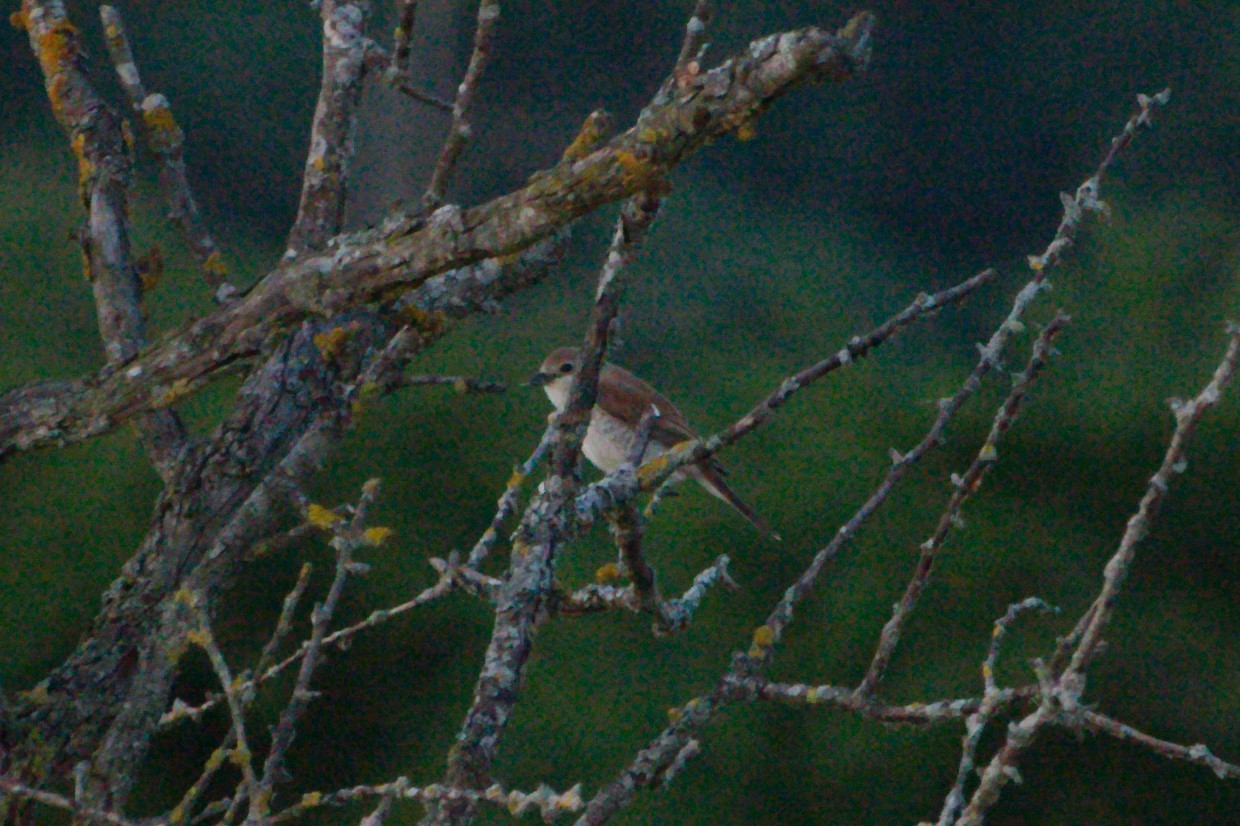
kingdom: Animalia
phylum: Chordata
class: Aves
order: Passeriformes
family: Laniidae
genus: Lanius
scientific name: Lanius collurio
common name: Red-backed shrike
